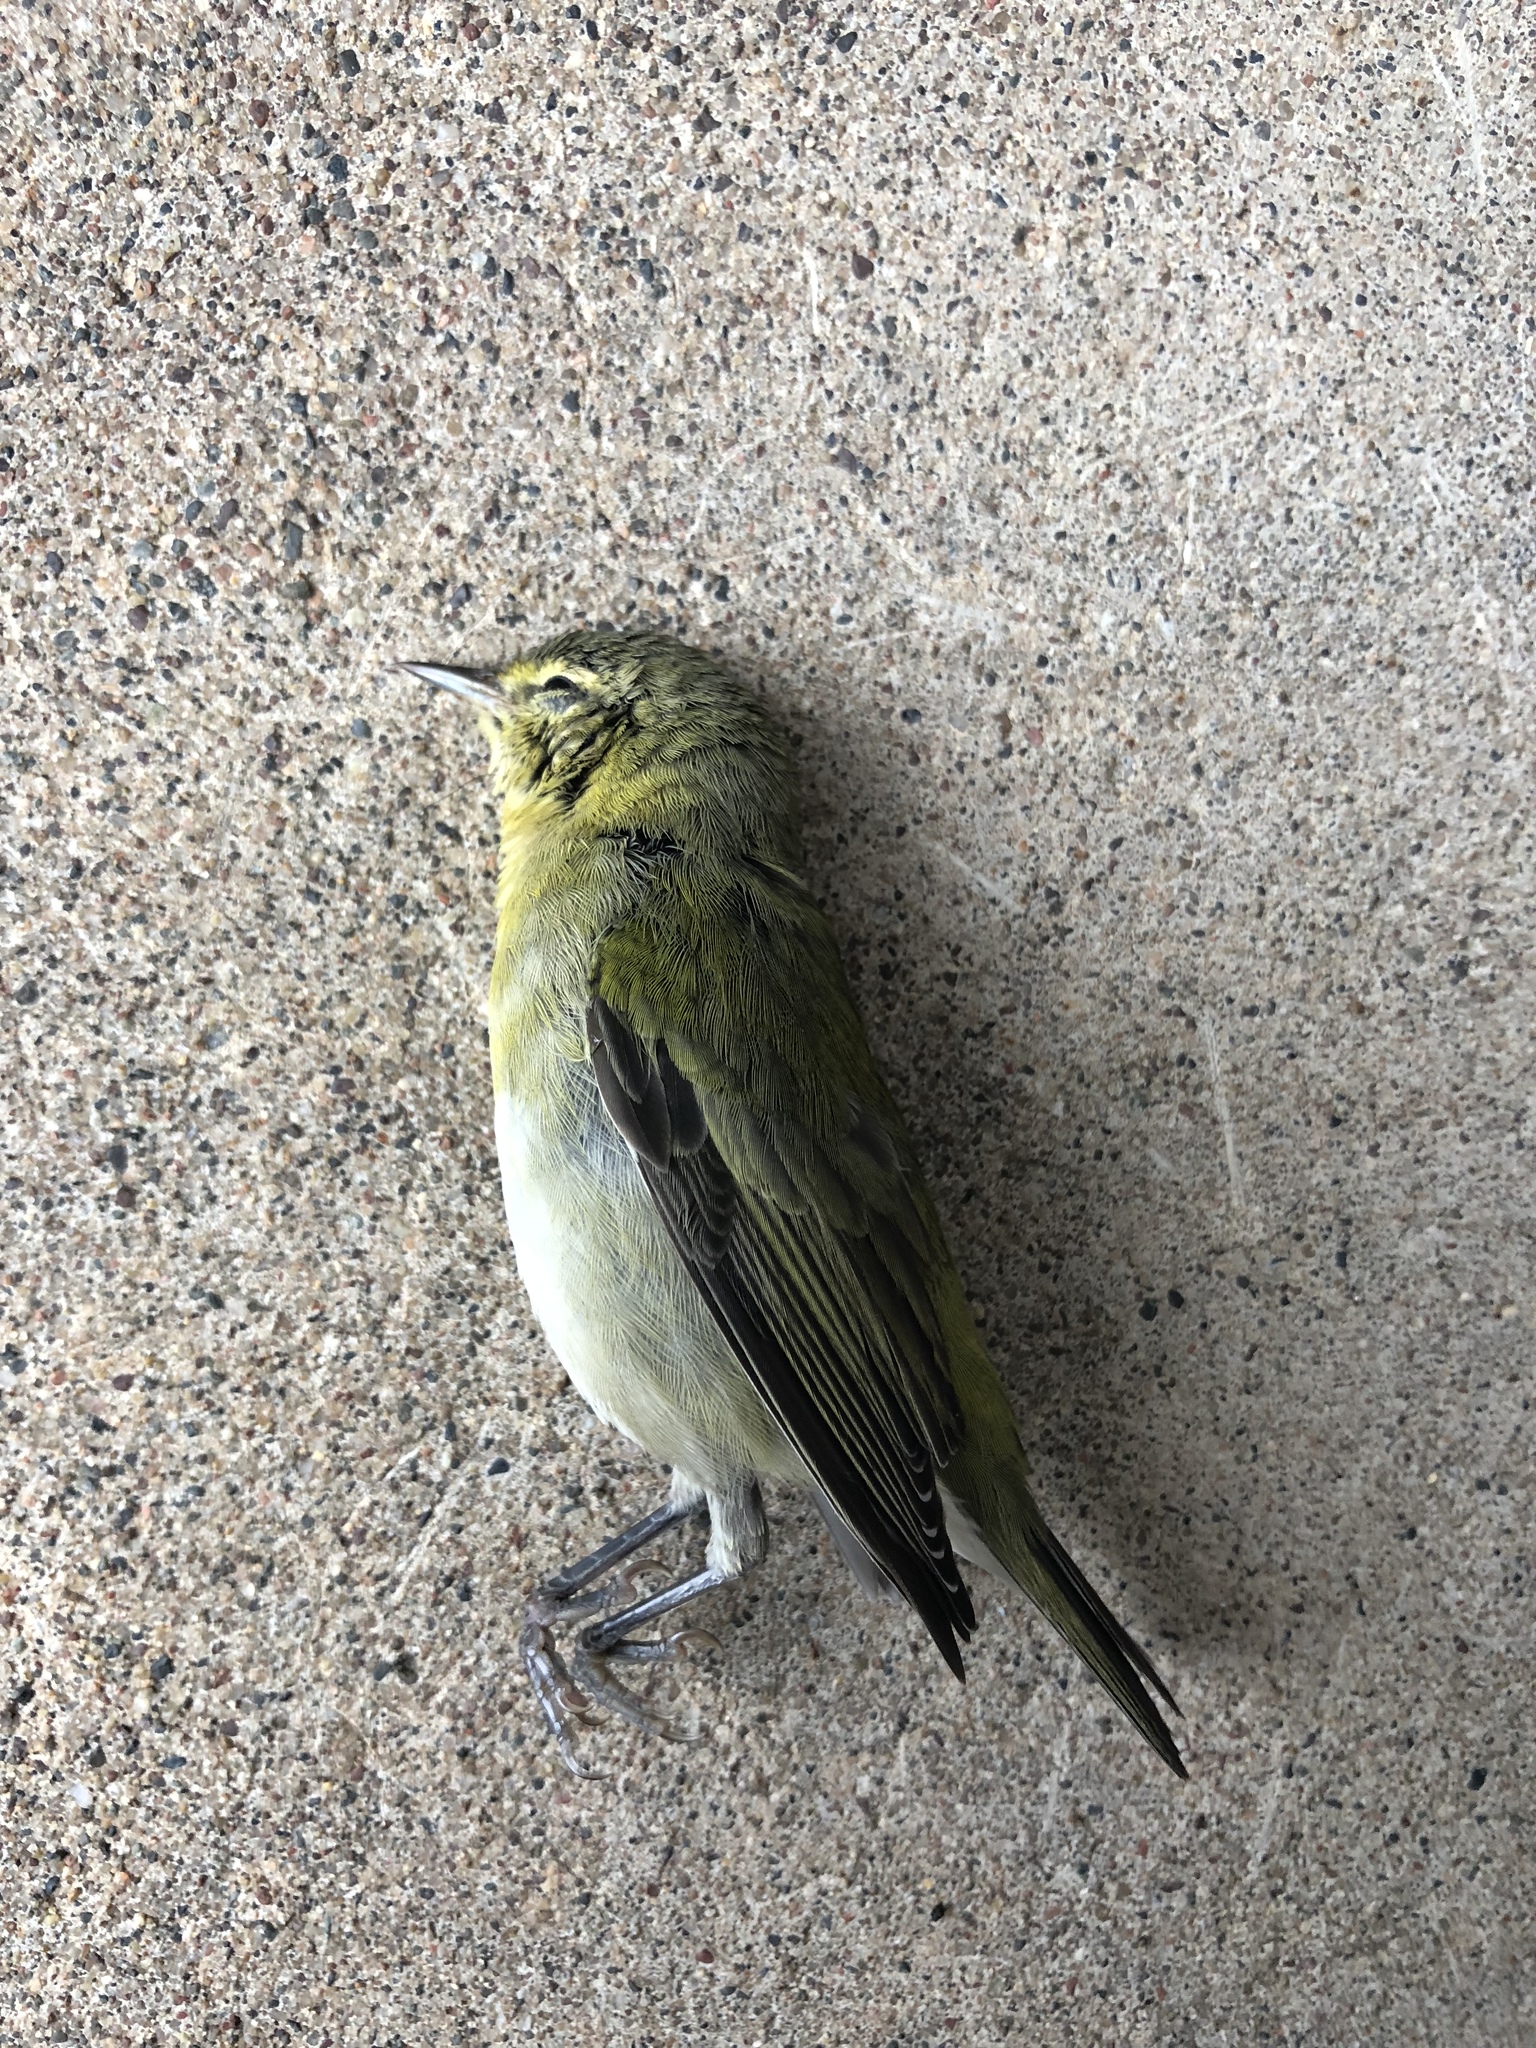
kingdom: Animalia
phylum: Chordata
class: Aves
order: Passeriformes
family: Parulidae
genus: Leiothlypis
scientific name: Leiothlypis peregrina
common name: Tennessee warbler
